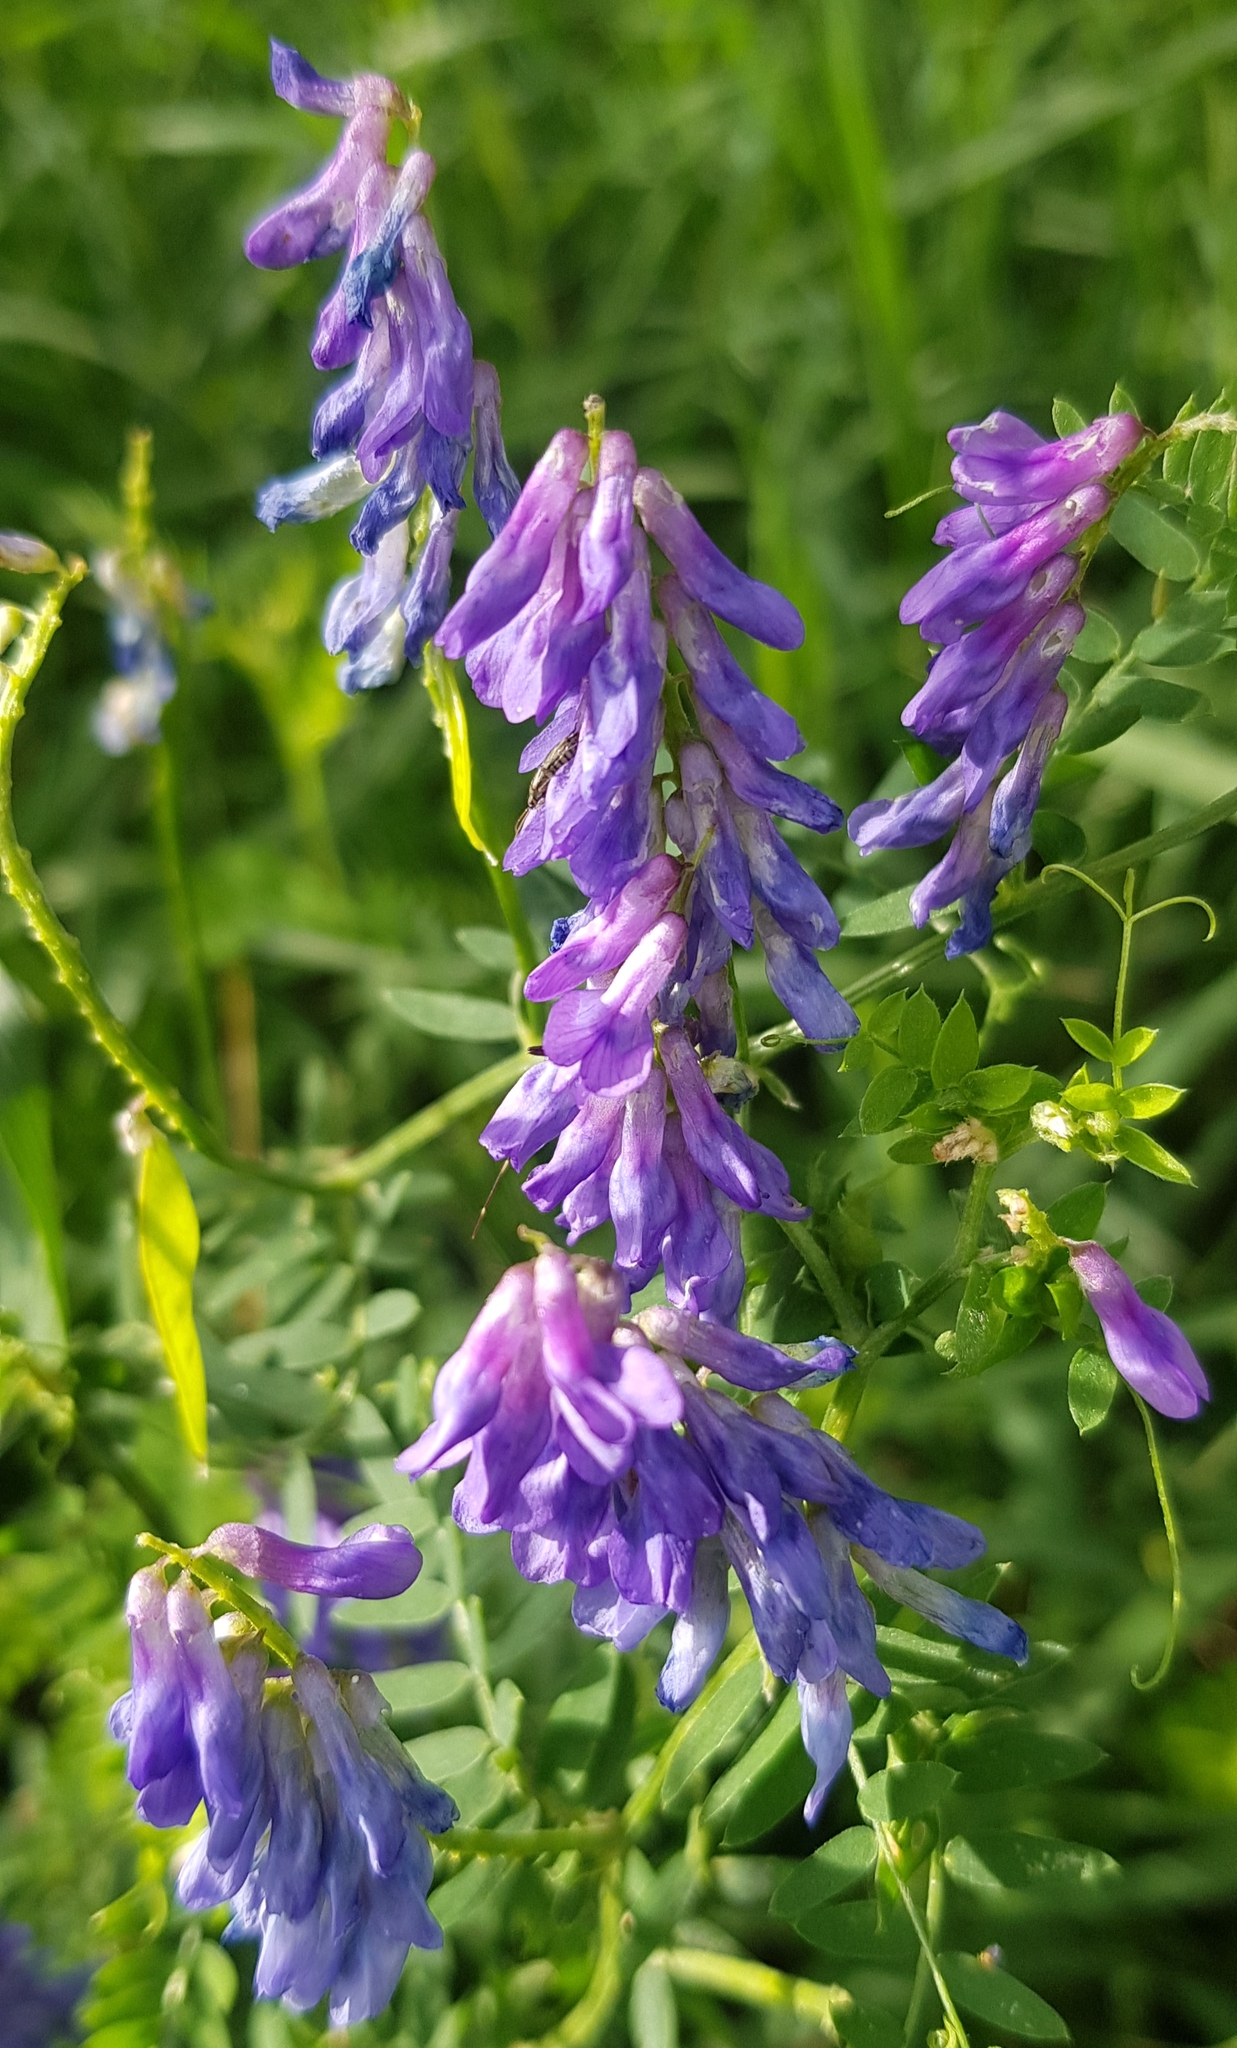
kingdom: Plantae
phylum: Tracheophyta
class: Magnoliopsida
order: Fabales
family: Fabaceae
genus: Vicia
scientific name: Vicia cracca
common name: Bird vetch
